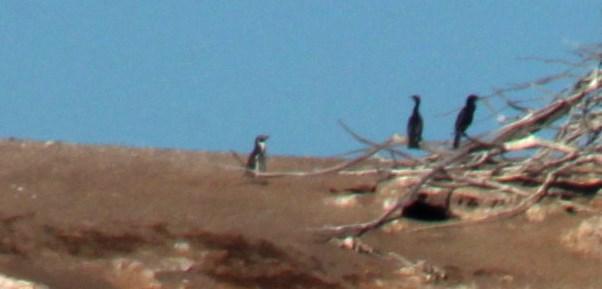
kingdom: Animalia
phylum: Chordata
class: Aves
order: Sphenisciformes
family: Spheniscidae
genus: Spheniscus
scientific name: Spheniscus humboldti
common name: Humboldt penguin
